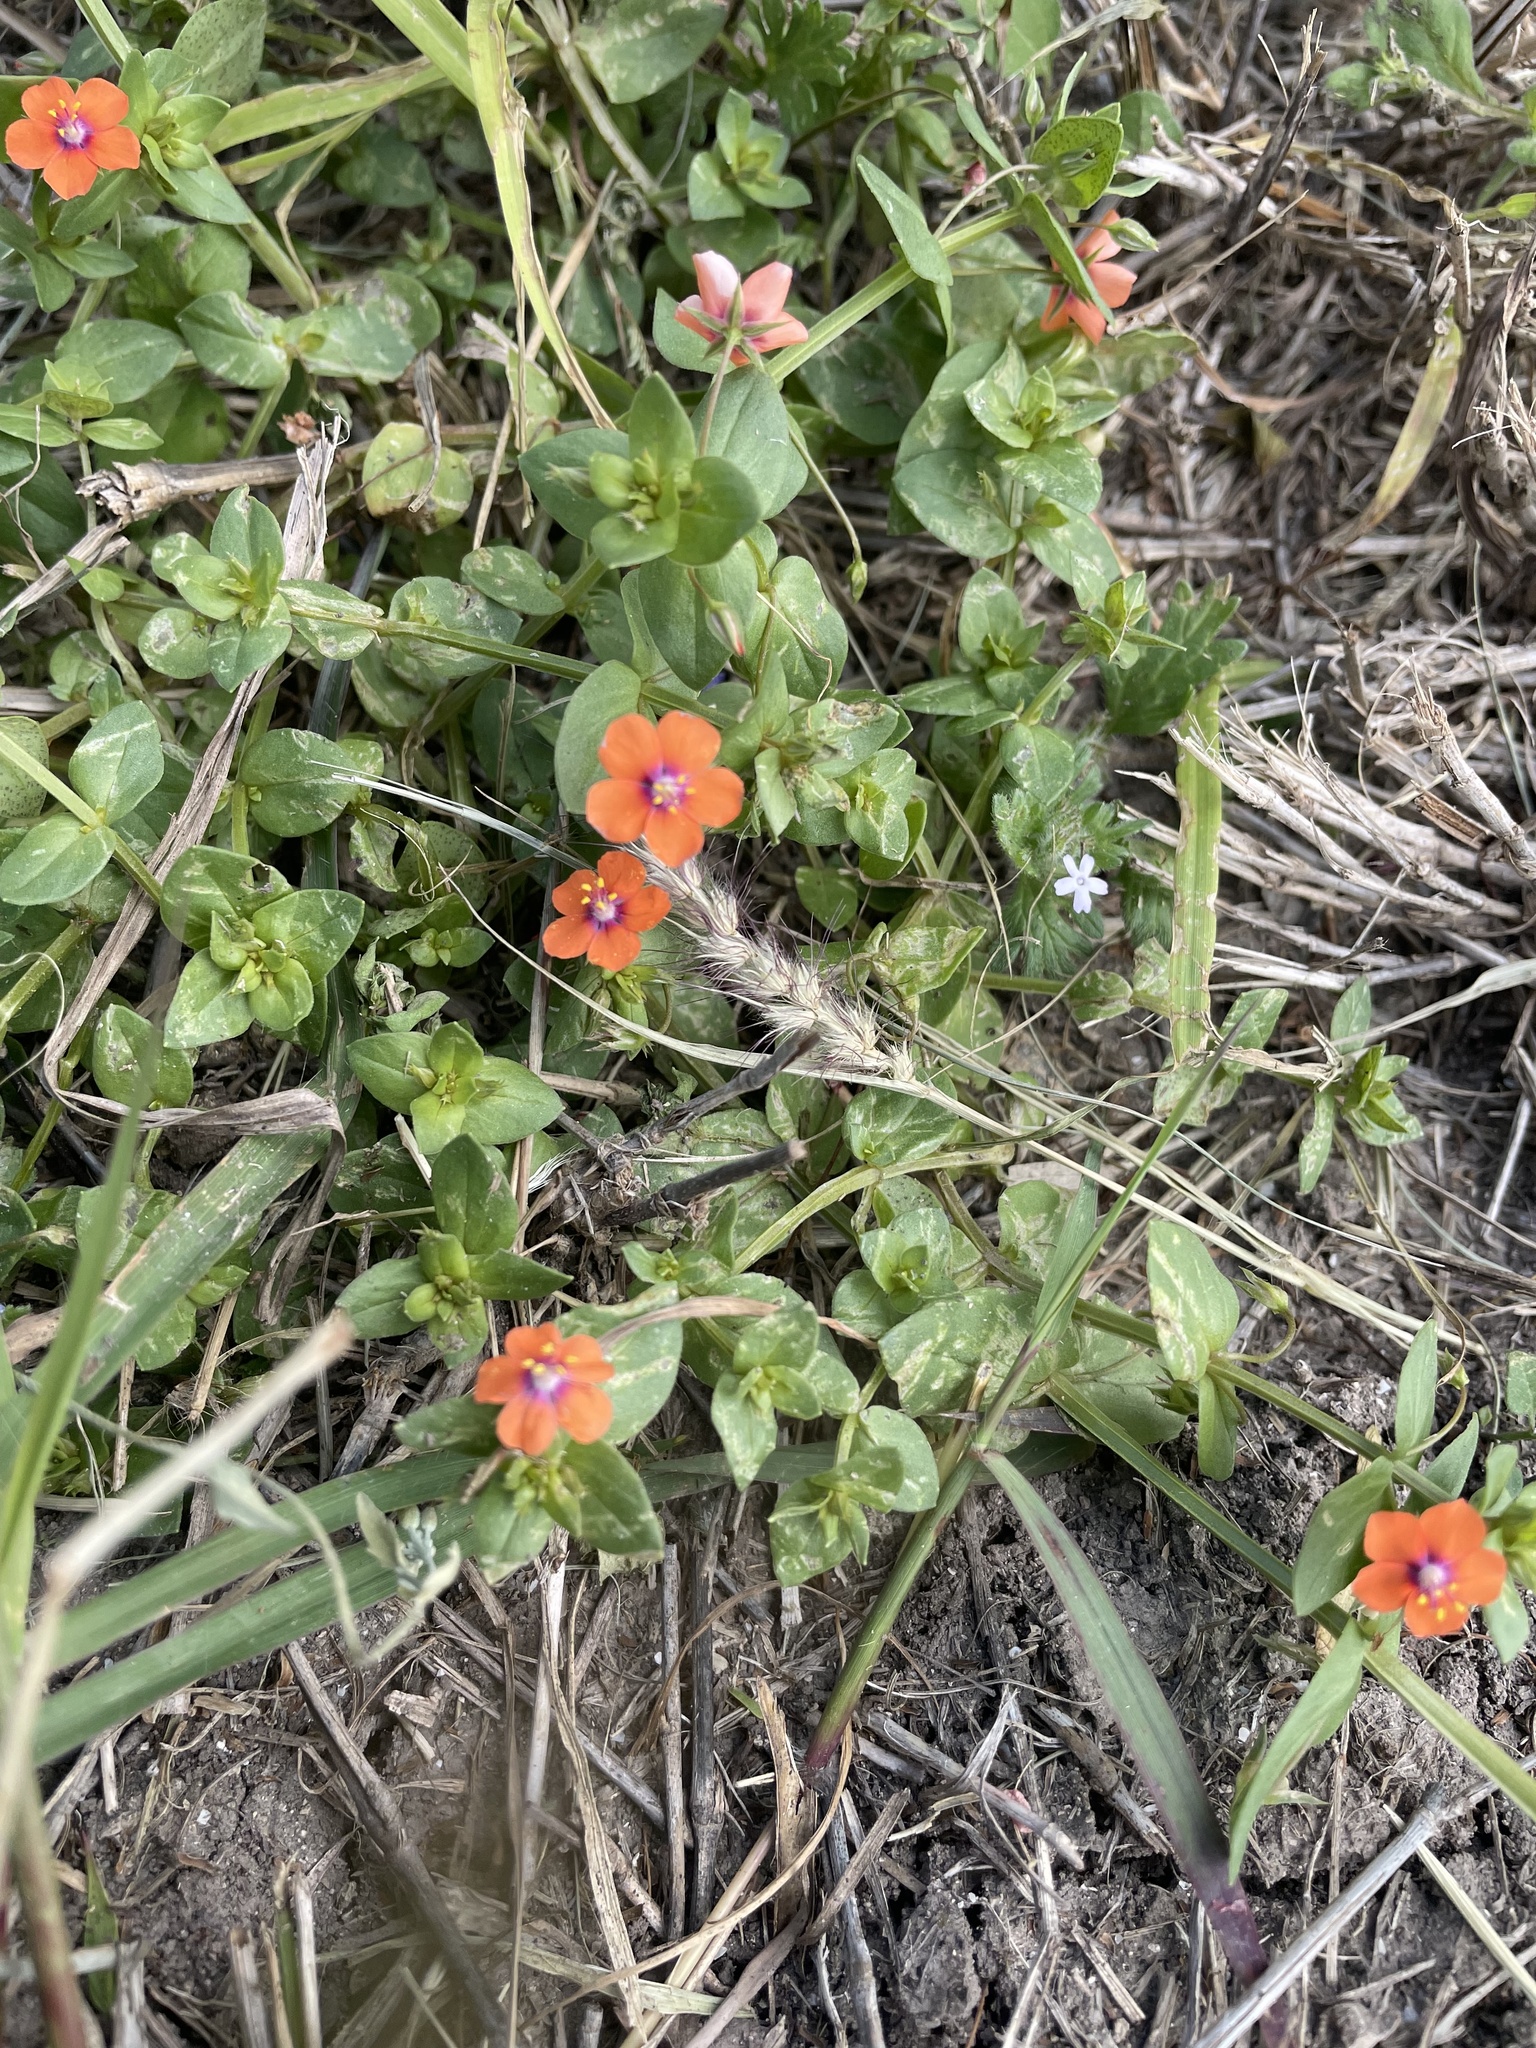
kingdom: Plantae
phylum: Tracheophyta
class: Magnoliopsida
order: Ericales
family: Primulaceae
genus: Lysimachia
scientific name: Lysimachia arvensis
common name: Scarlet pimpernel
